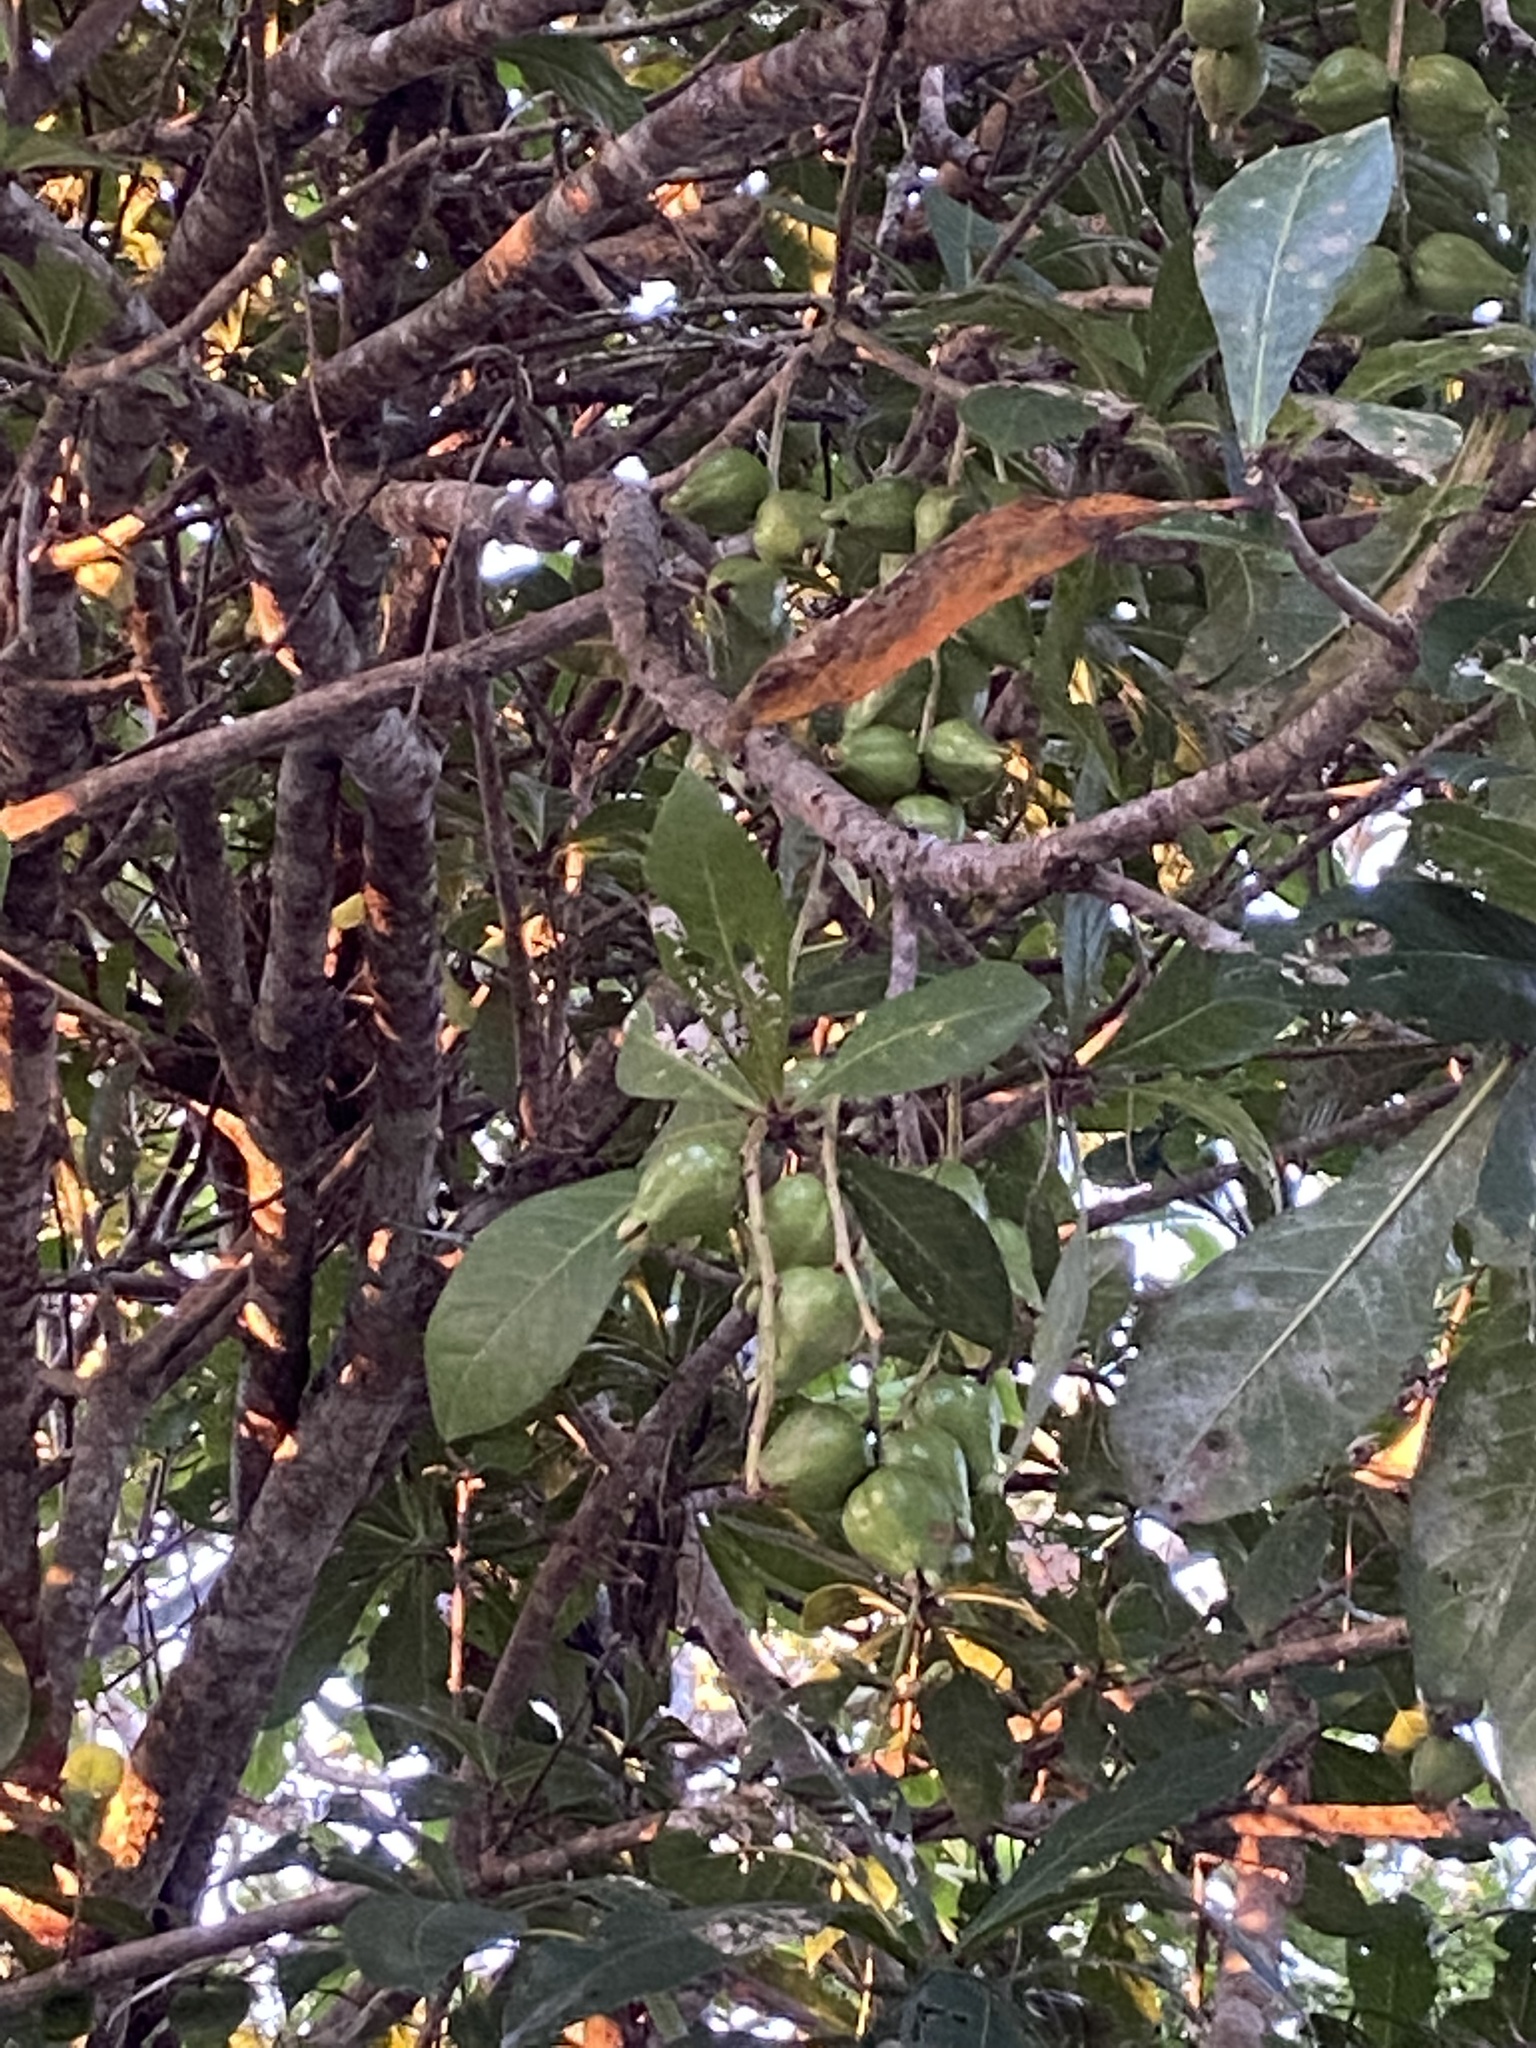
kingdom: Plantae
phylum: Tracheophyta
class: Magnoliopsida
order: Ericales
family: Lecythidaceae
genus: Barringtonia
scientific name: Barringtonia racemosa
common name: Brackwater mangrove
